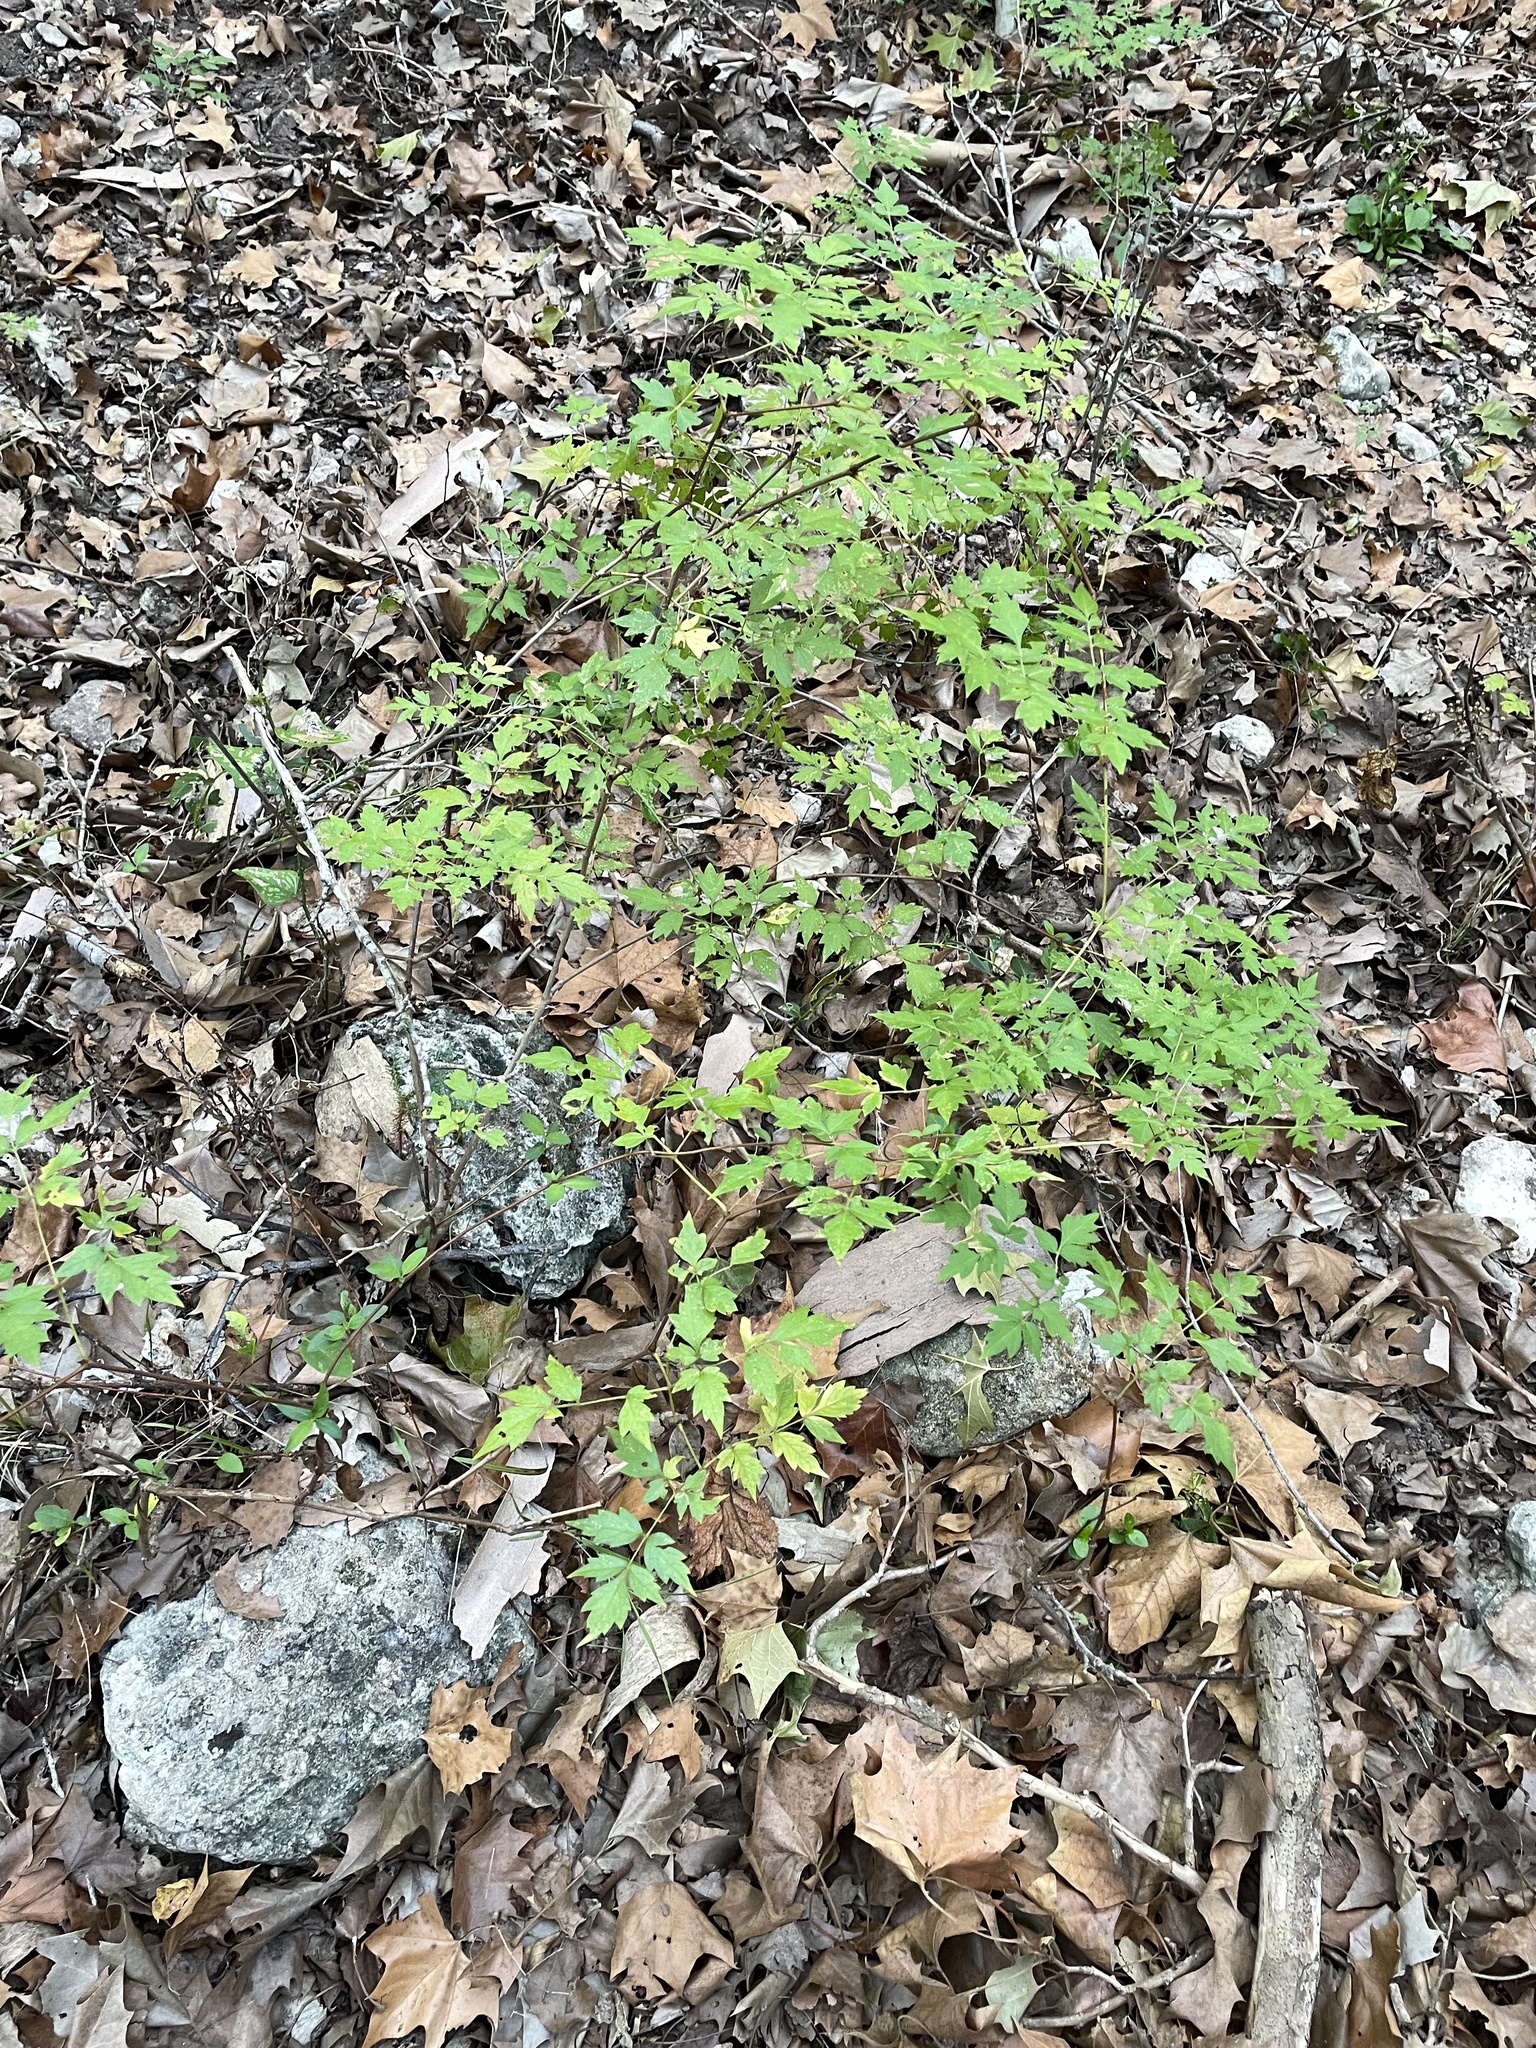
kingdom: Plantae
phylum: Tracheophyta
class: Magnoliopsida
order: Vitales
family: Vitaceae
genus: Nekemias
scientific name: Nekemias arborea
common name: Peppervine
